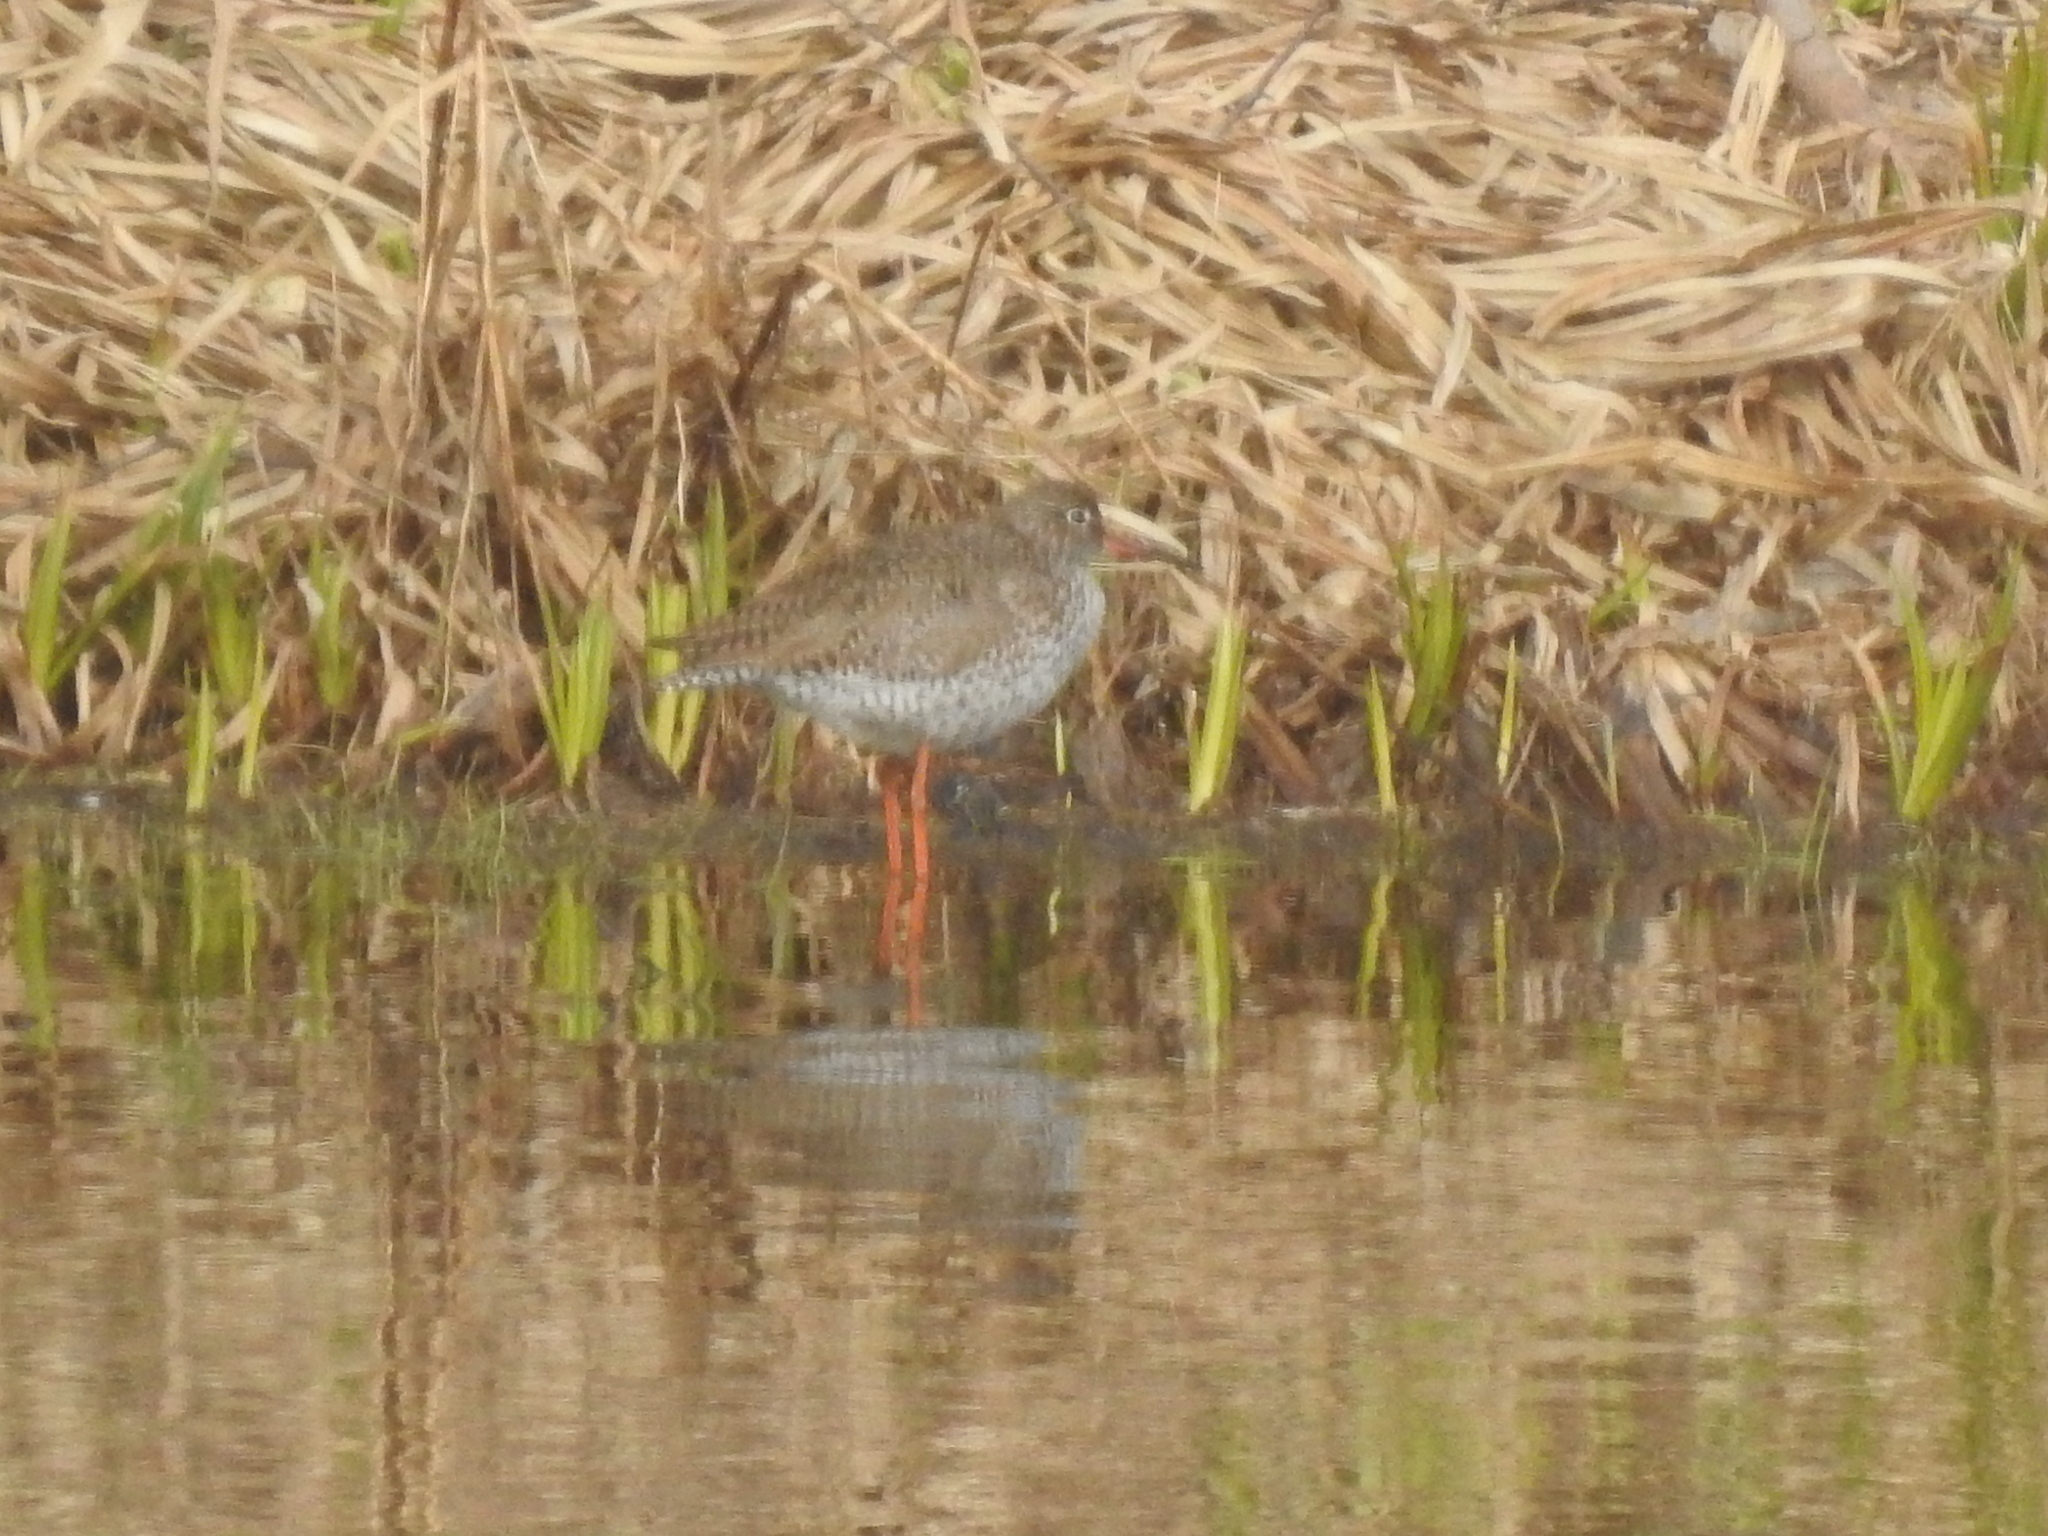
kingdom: Animalia
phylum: Chordata
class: Aves
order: Charadriiformes
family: Scolopacidae
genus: Tringa
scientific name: Tringa totanus
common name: Common redshank
